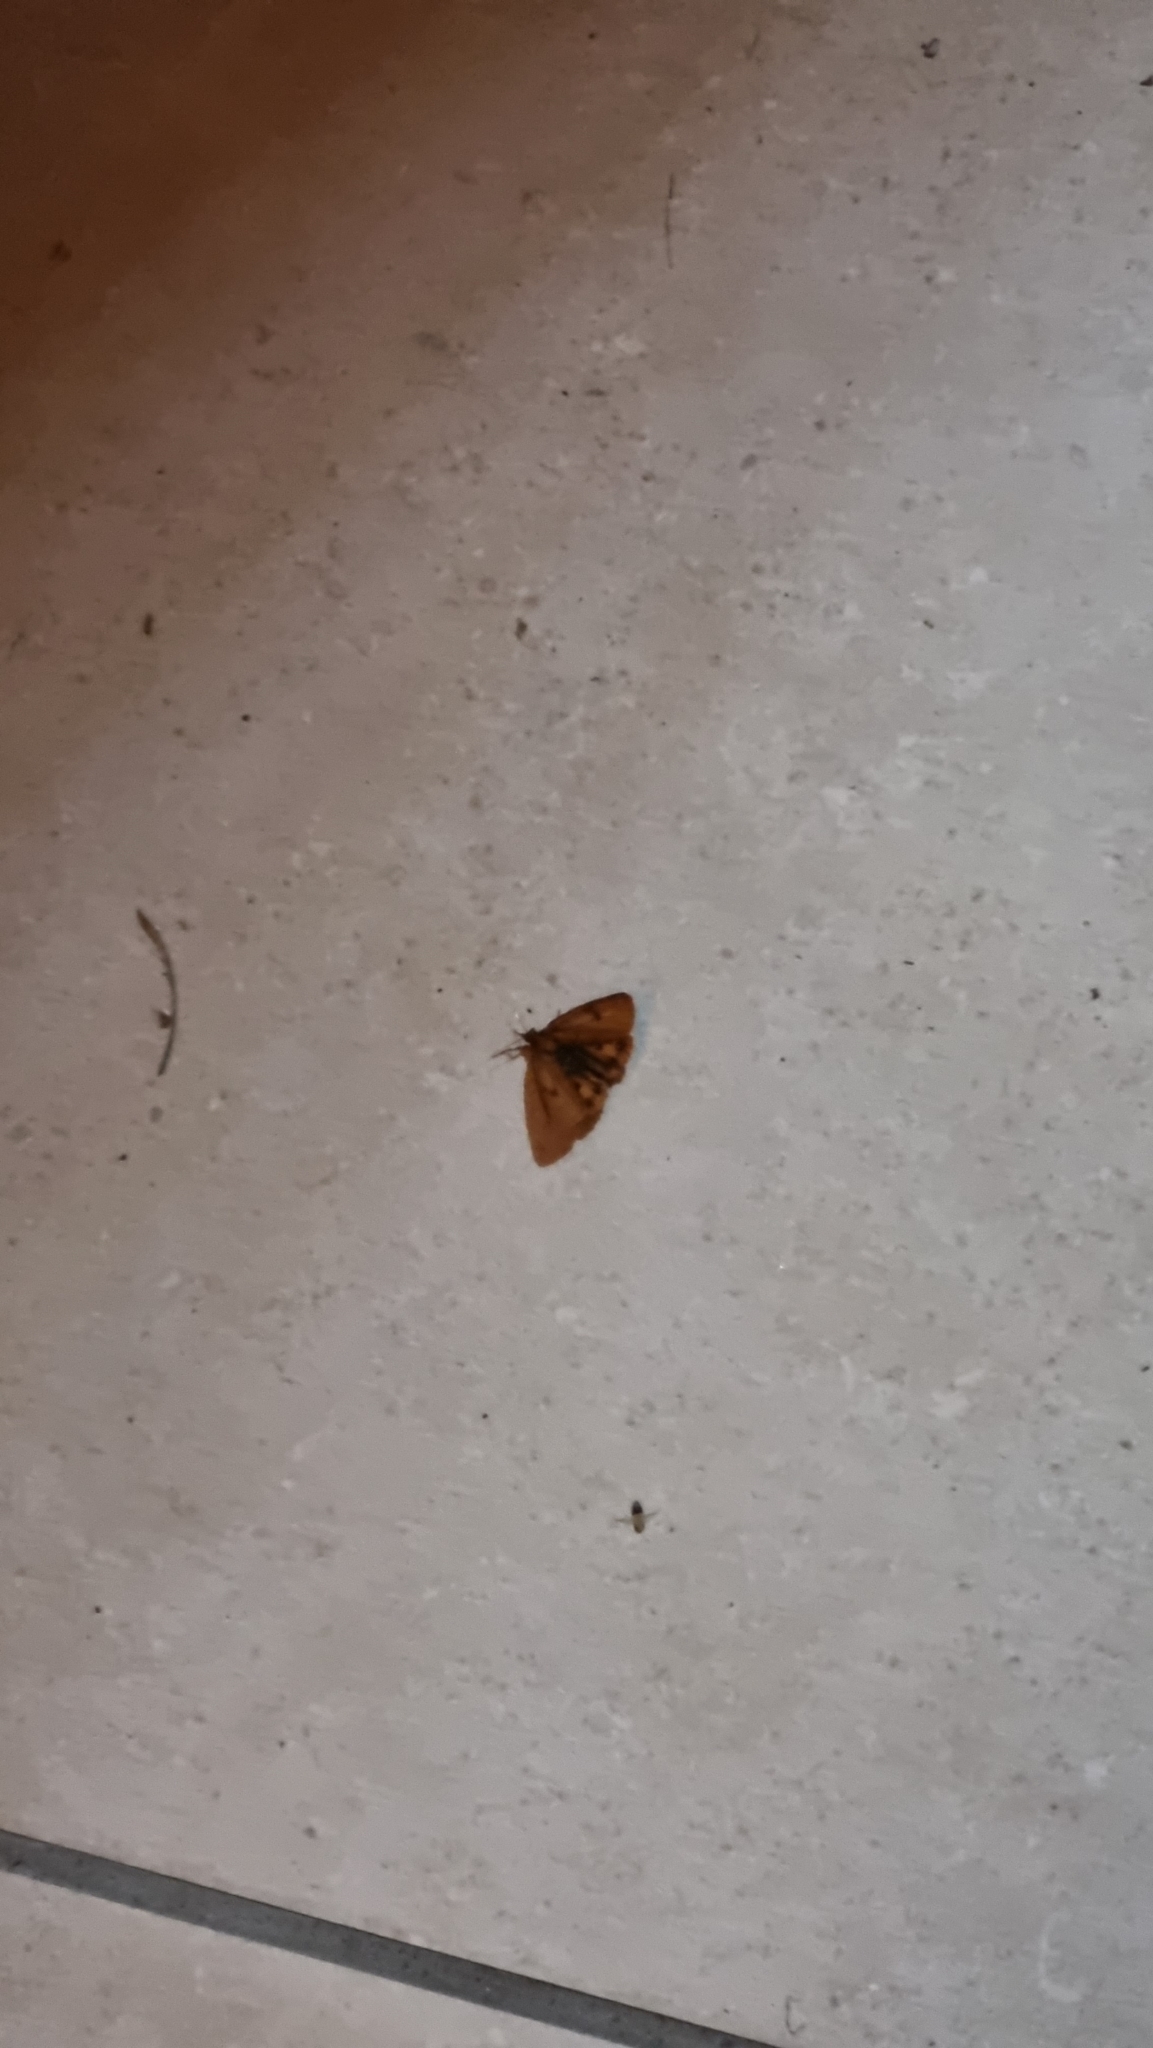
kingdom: Animalia
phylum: Arthropoda
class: Insecta
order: Lepidoptera
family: Erebidae
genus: Diacrisia
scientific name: Diacrisia sannio
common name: Clouded buff
